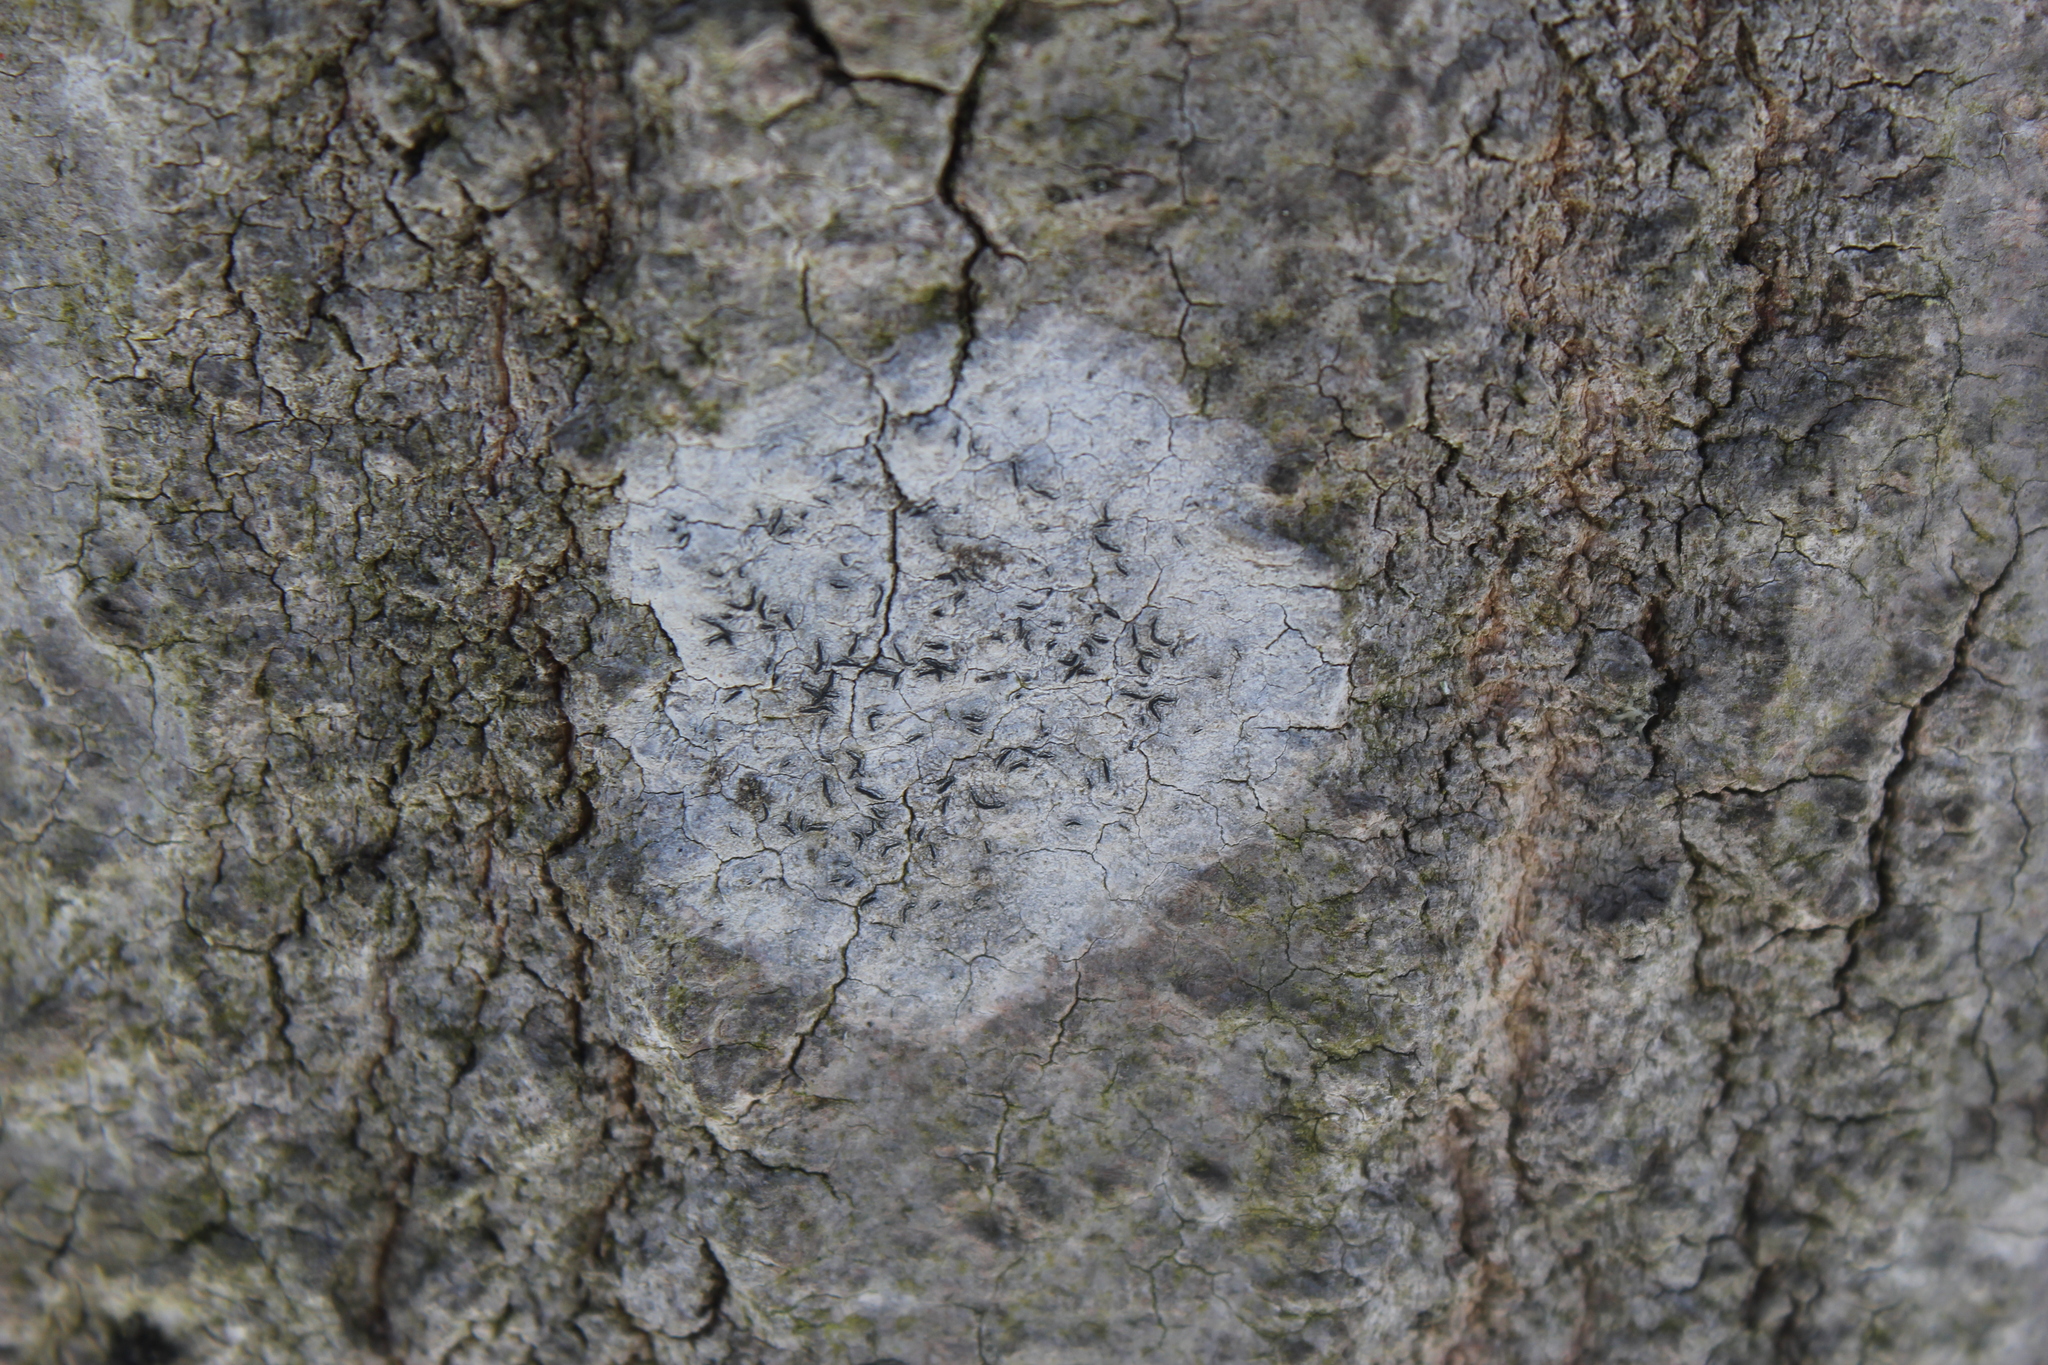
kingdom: Fungi
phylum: Ascomycota
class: Lecanoromycetes
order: Ostropales
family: Graphidaceae
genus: Graphis
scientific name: Graphis scripta
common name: Script lichen
